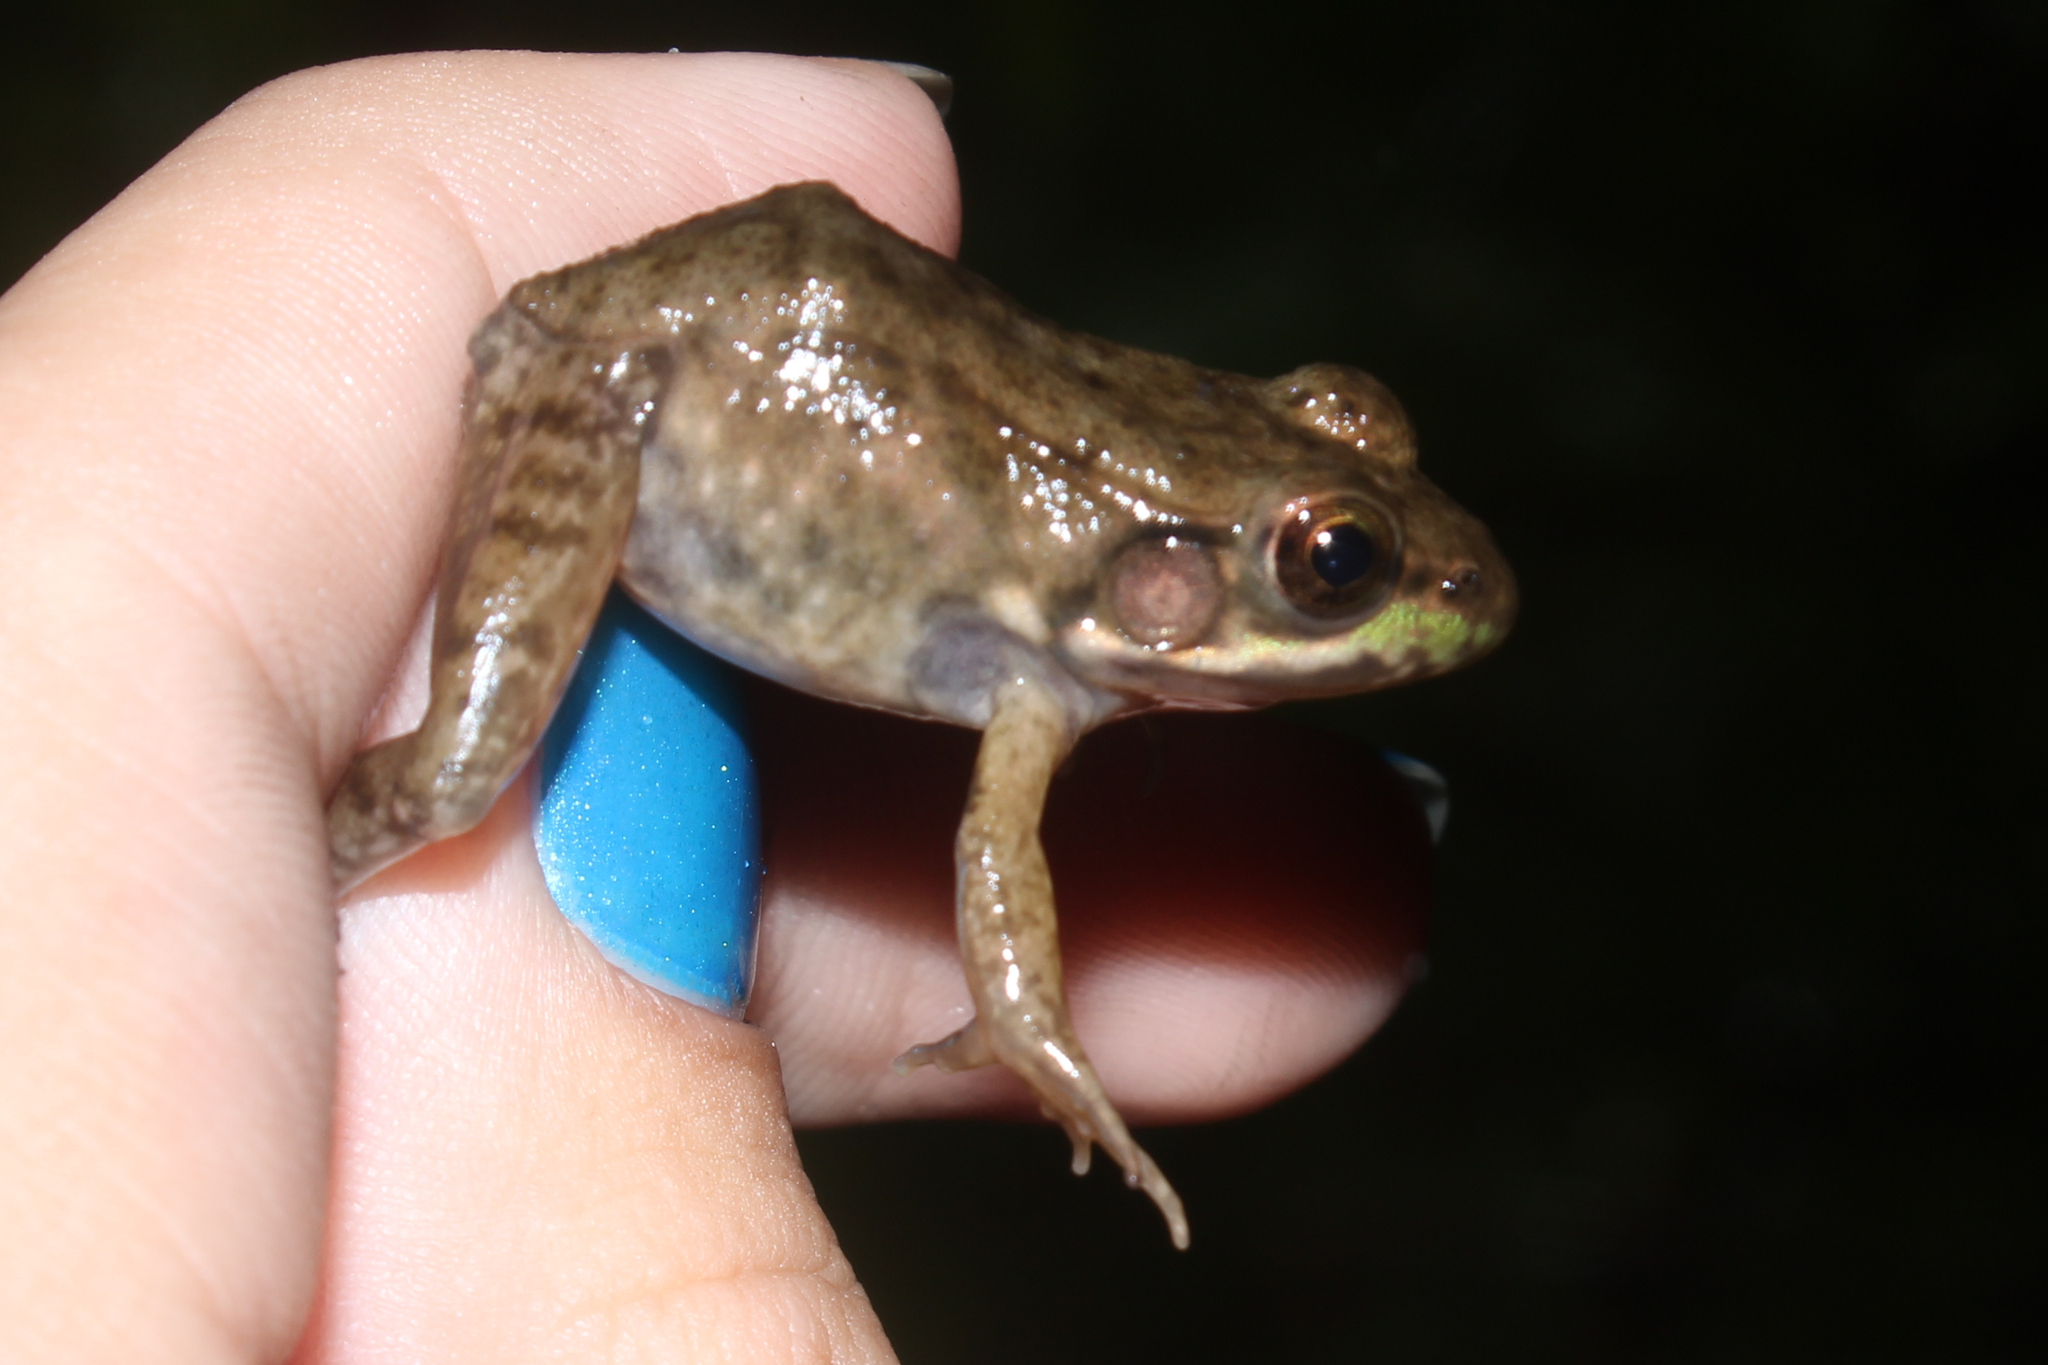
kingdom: Animalia
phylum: Chordata
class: Amphibia
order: Anura
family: Ranidae
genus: Lithobates
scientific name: Lithobates clamitans
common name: Green frog
